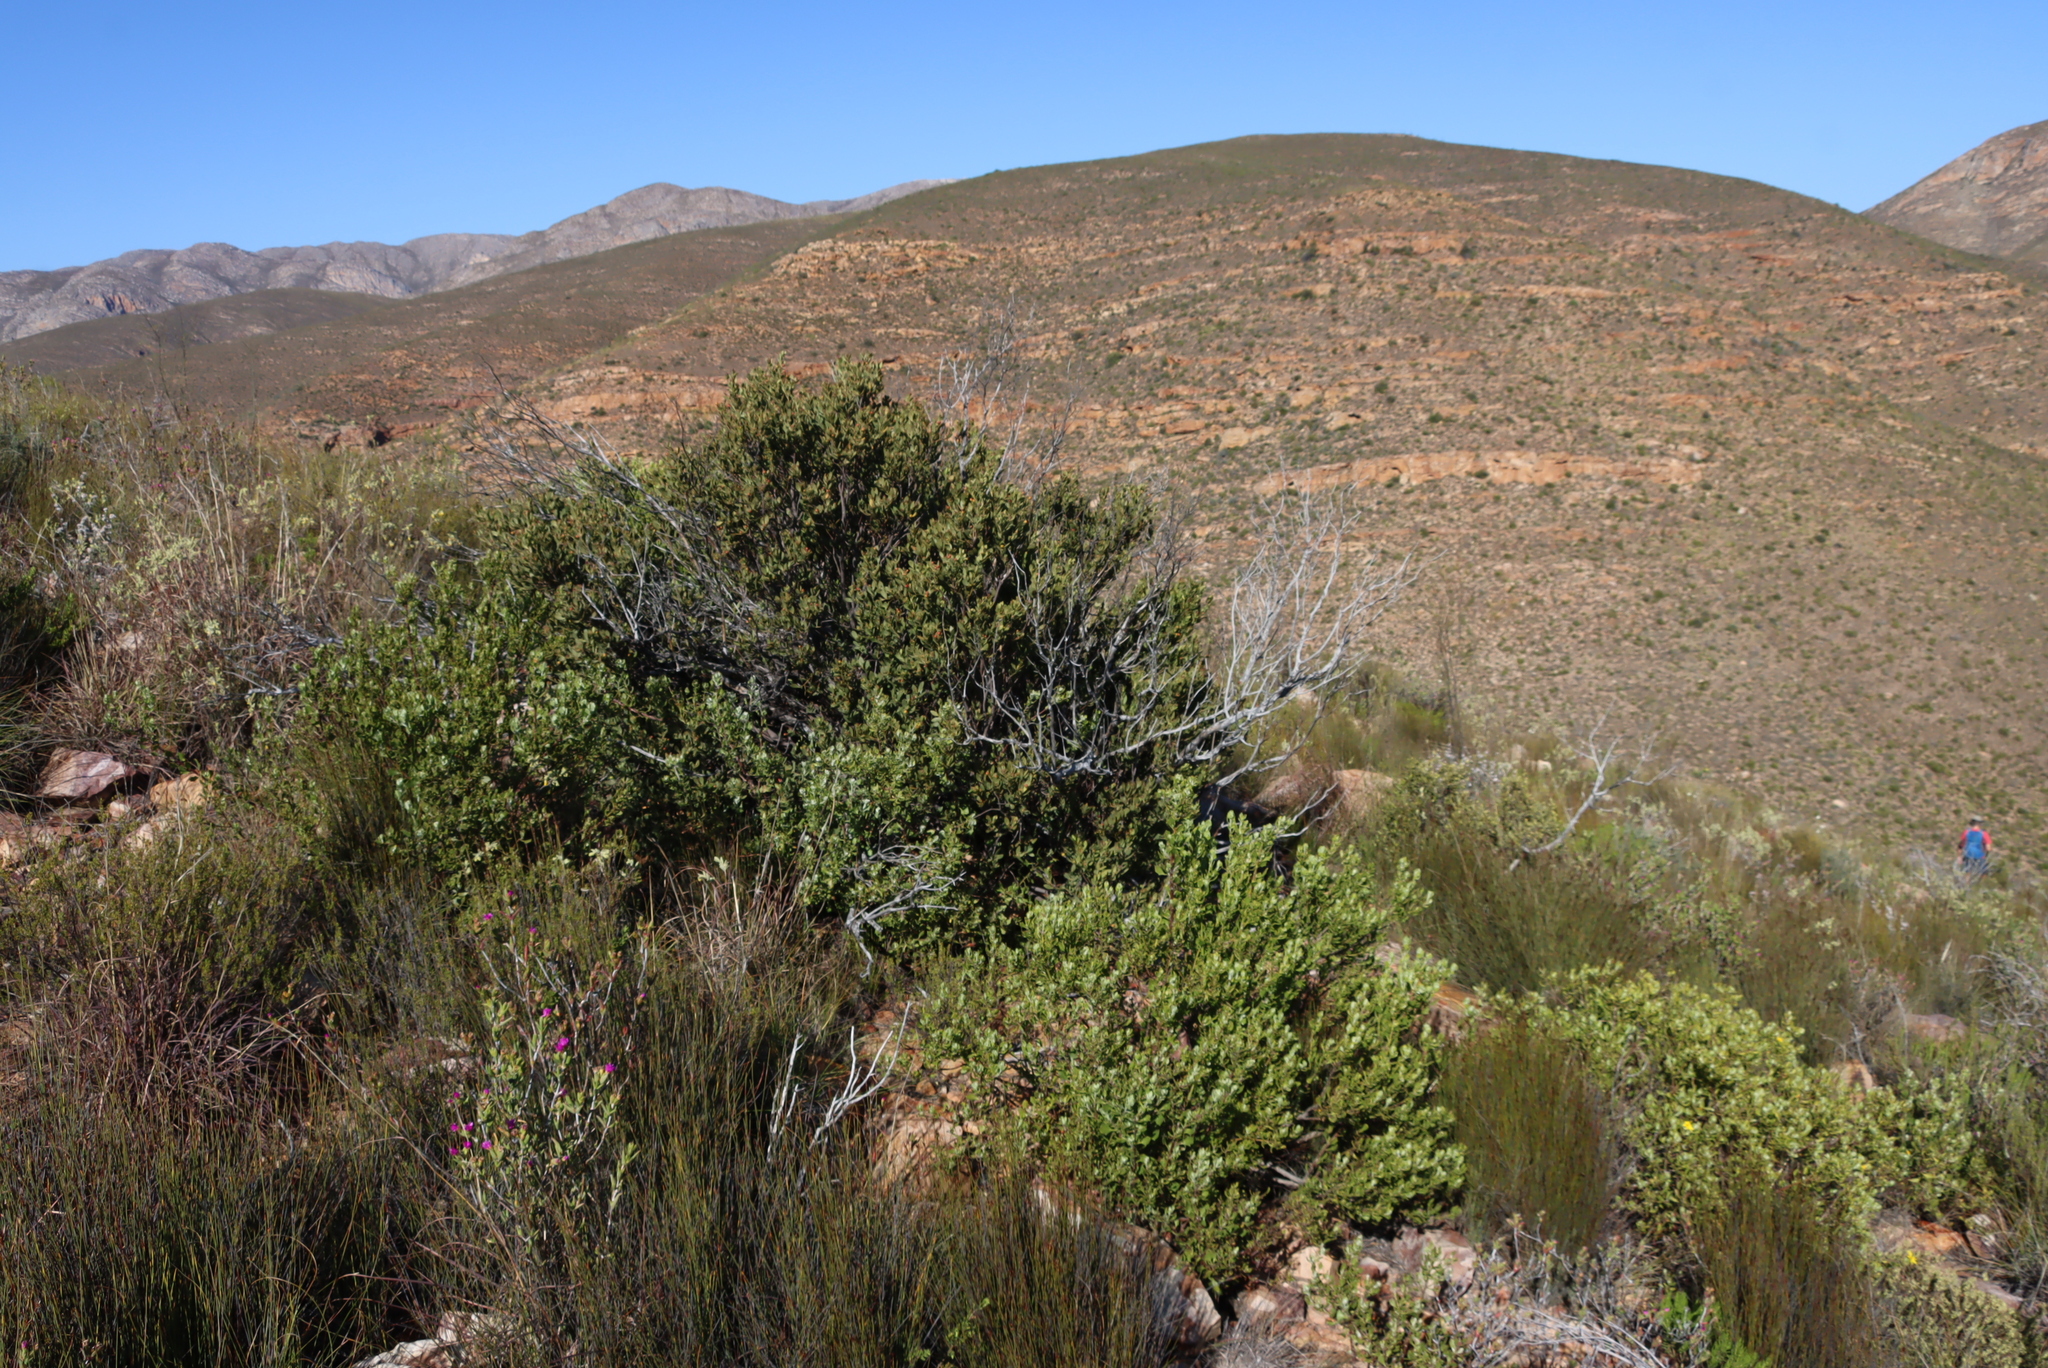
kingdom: Plantae
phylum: Tracheophyta
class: Magnoliopsida
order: Santalales
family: Santalaceae
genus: Osyris
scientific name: Osyris compressa
